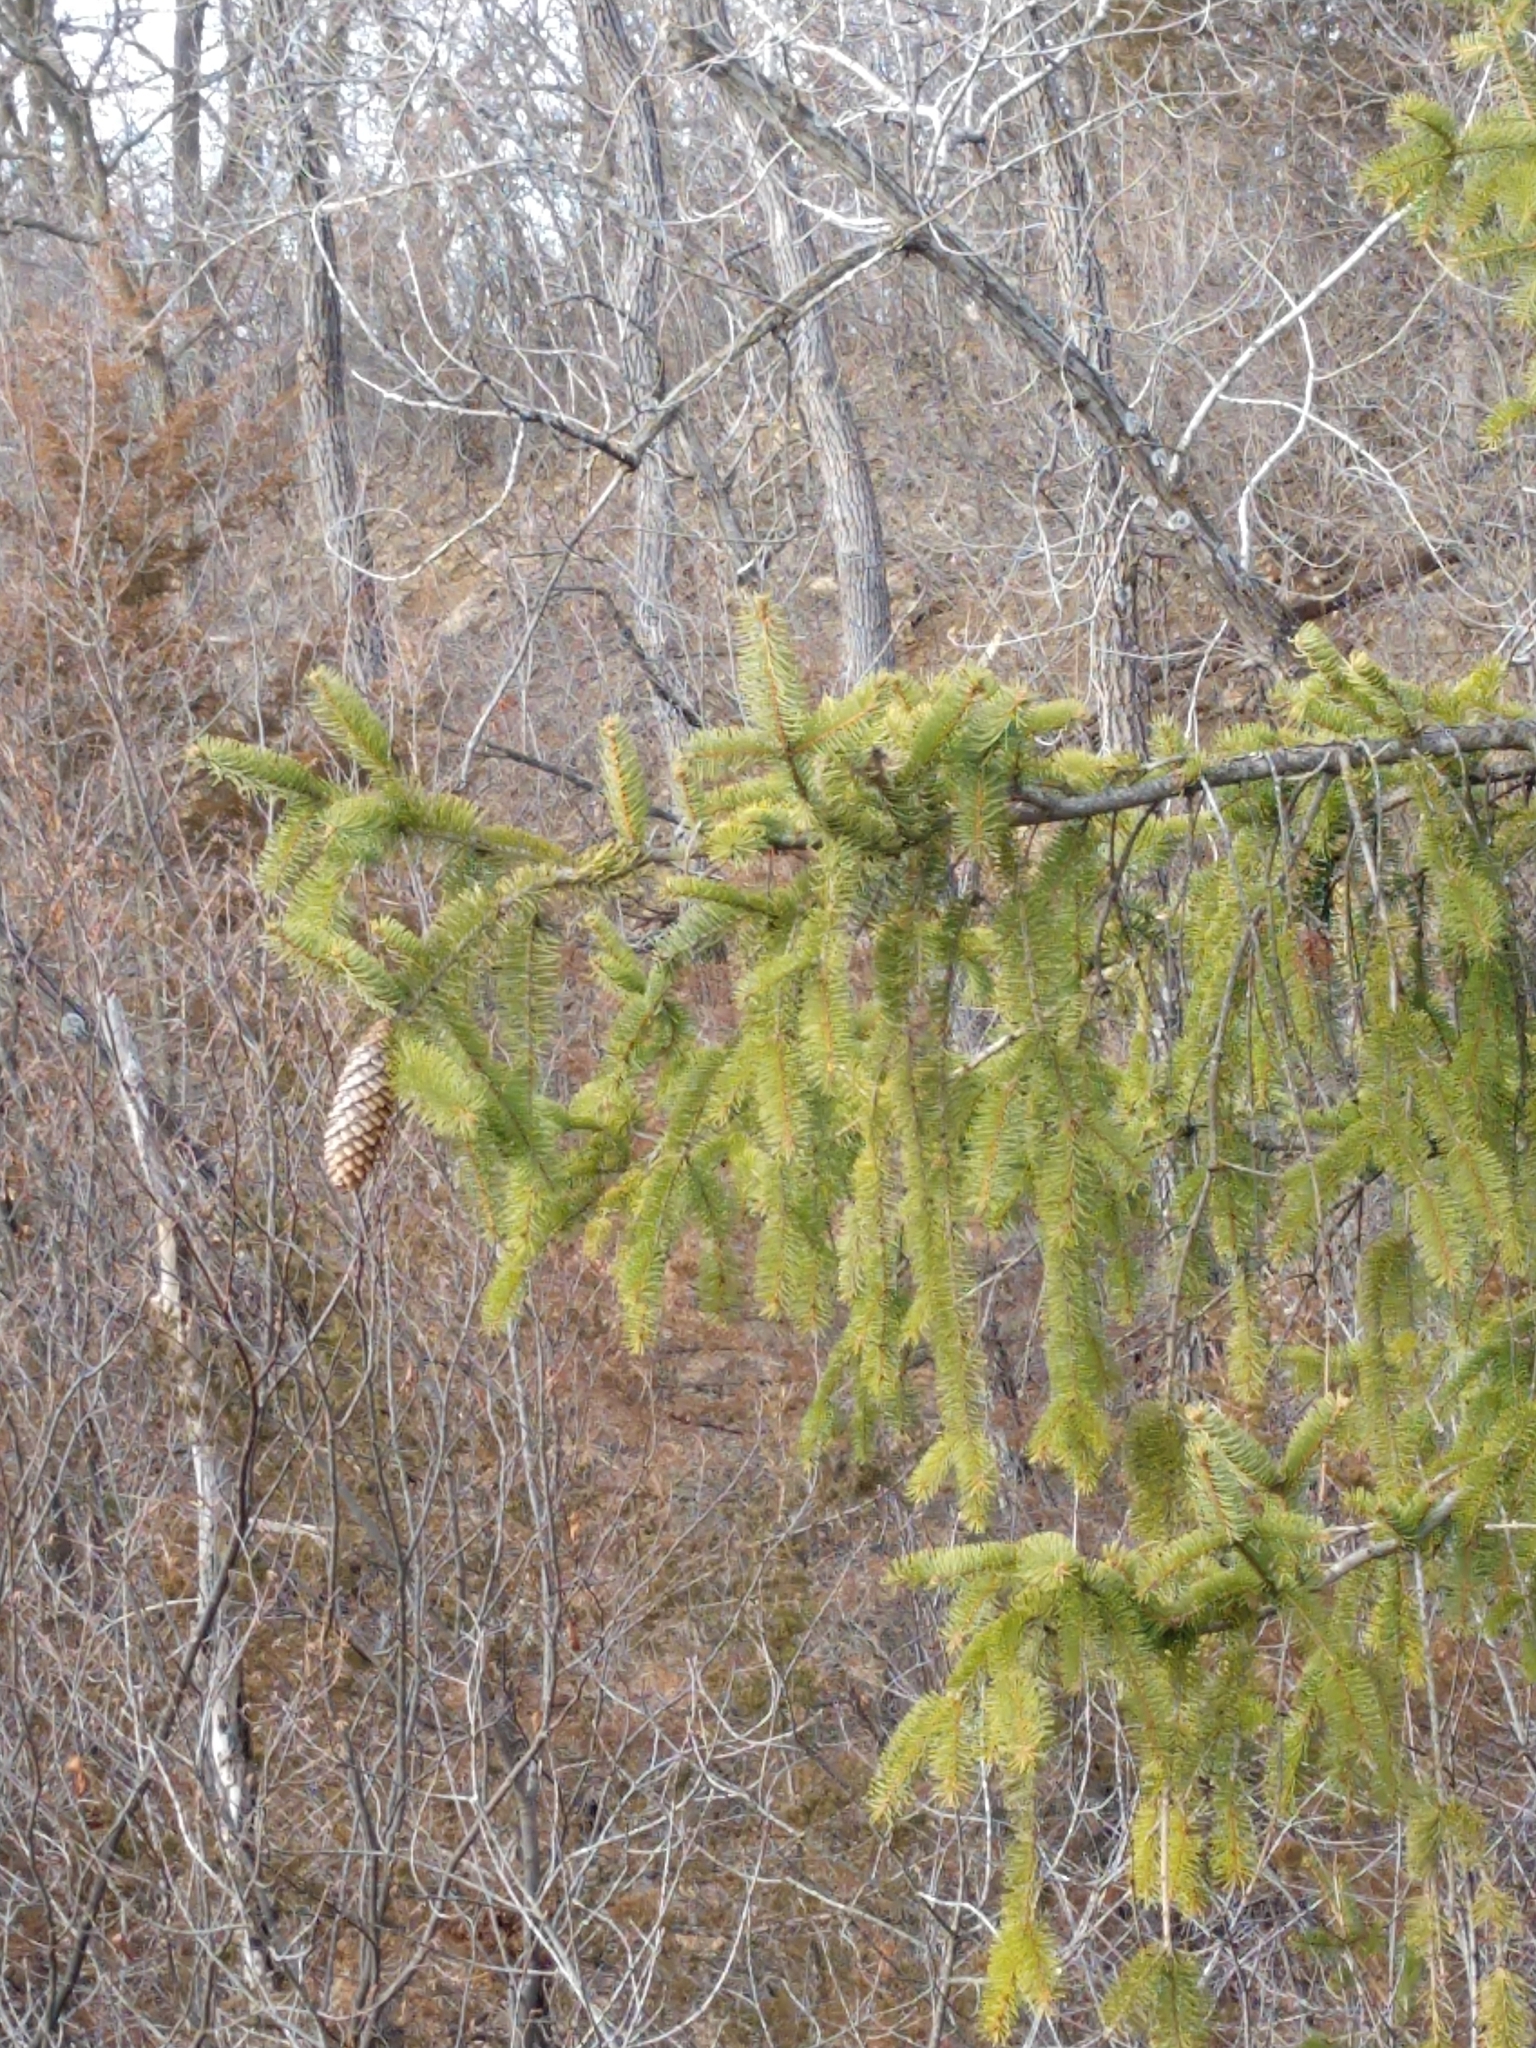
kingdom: Plantae
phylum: Tracheophyta
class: Pinopsida
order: Pinales
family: Pinaceae
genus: Picea
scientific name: Picea abies
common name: Norway spruce
